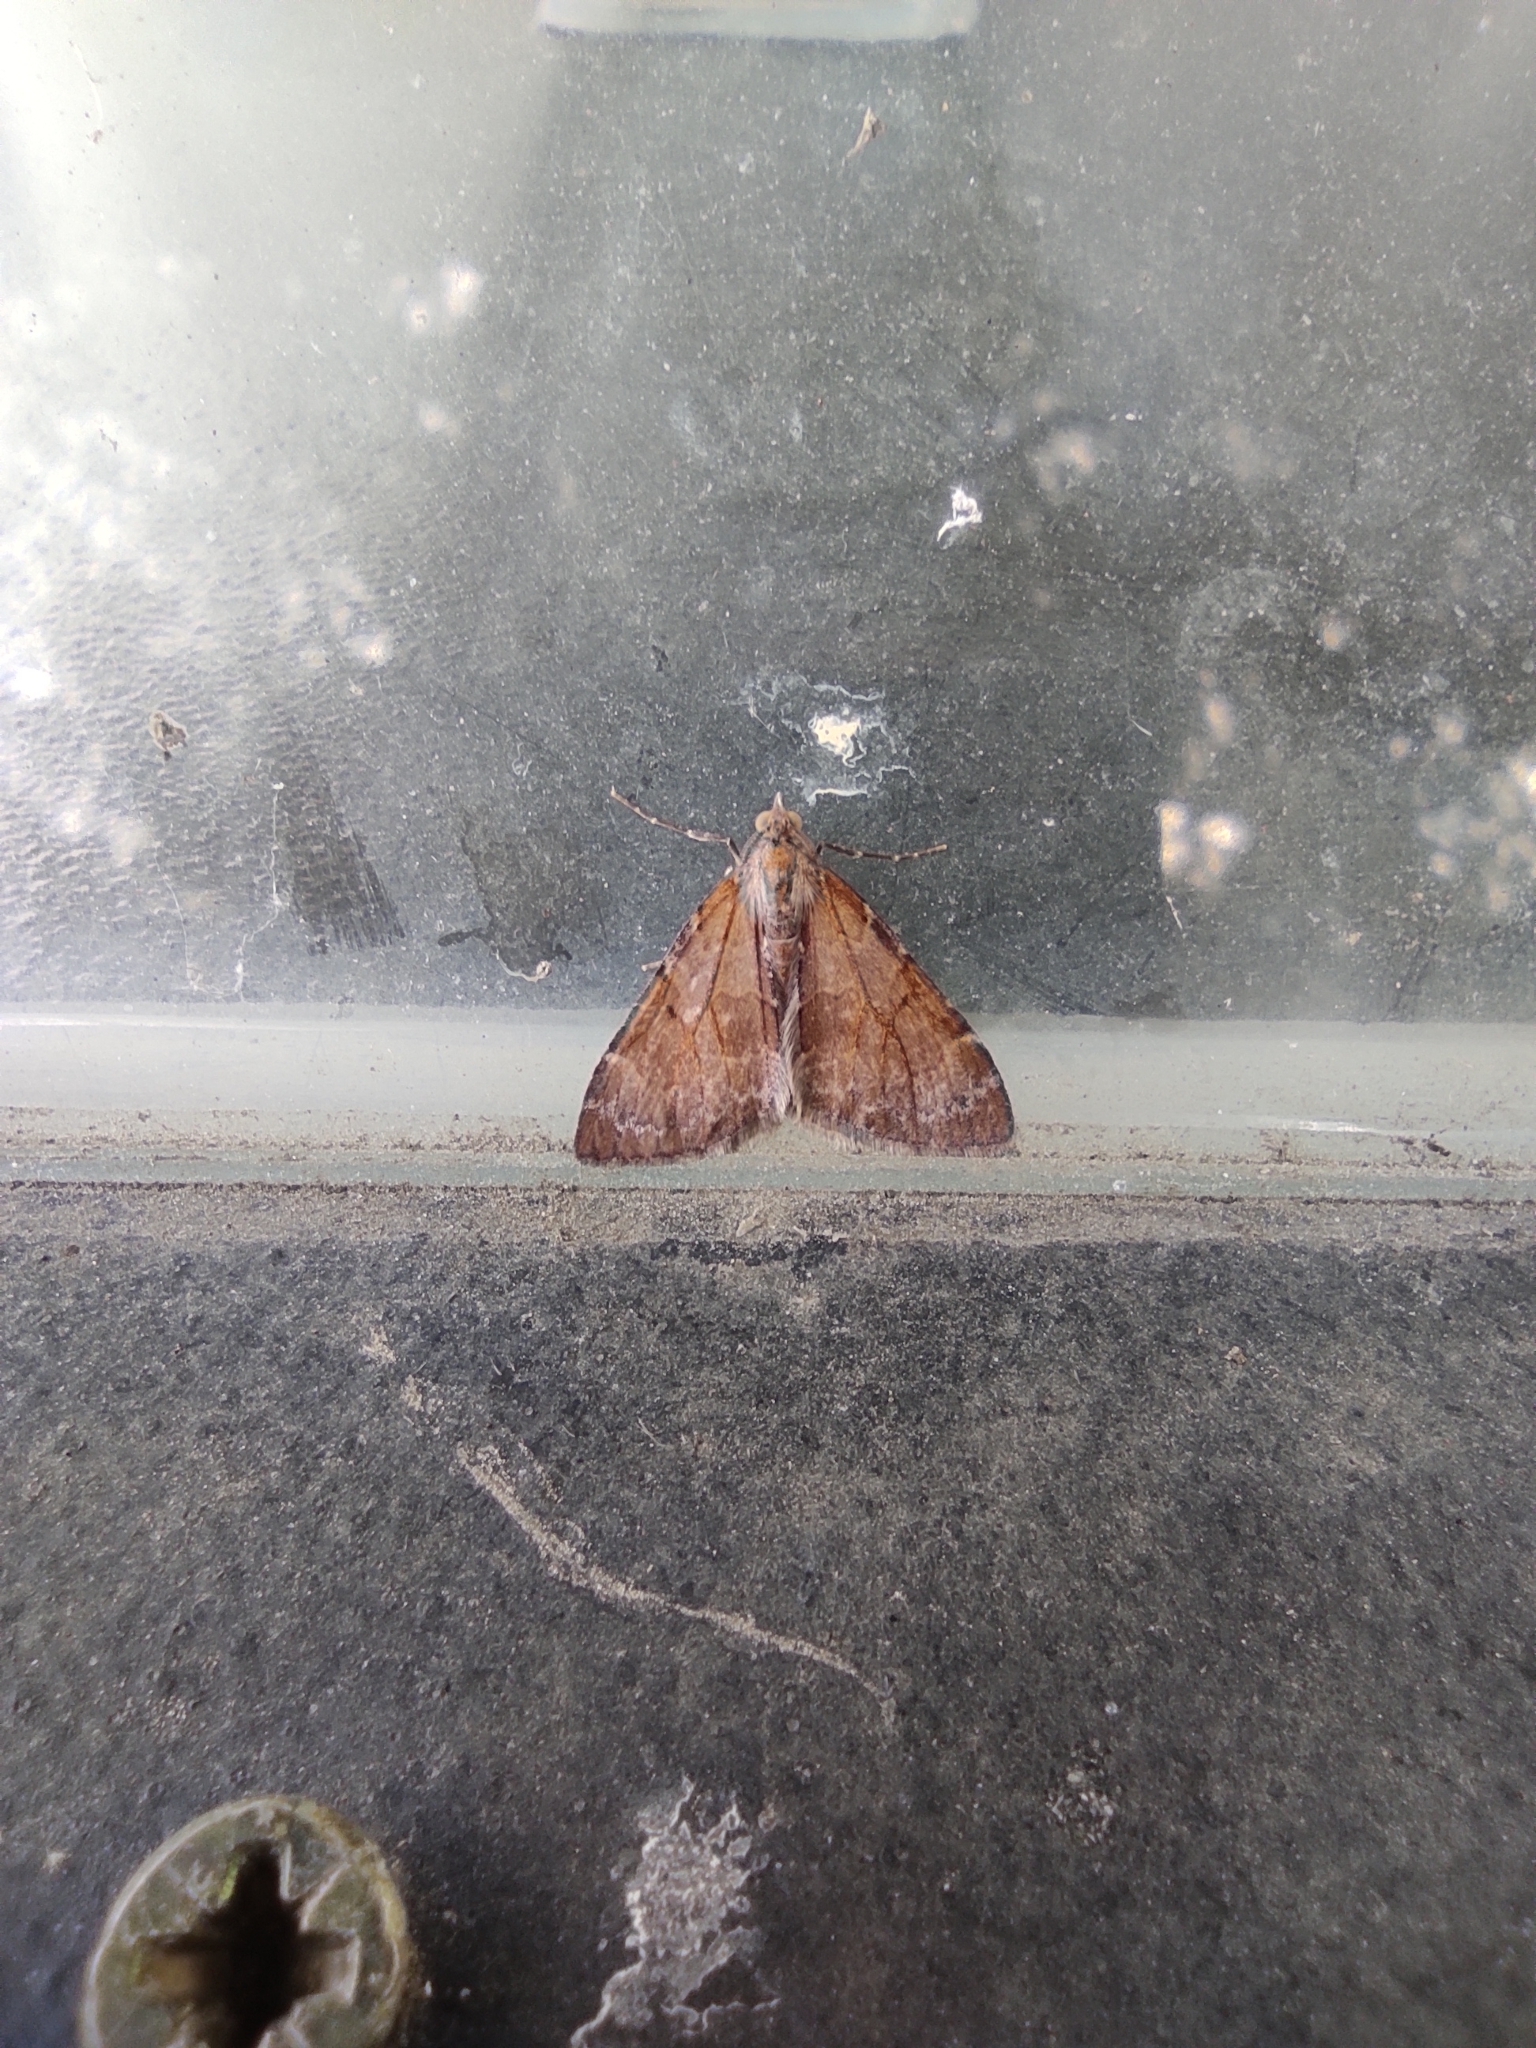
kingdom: Animalia
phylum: Arthropoda
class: Insecta
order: Lepidoptera
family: Geometridae
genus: Pennithera
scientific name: Pennithera firmata
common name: Pine carpet
